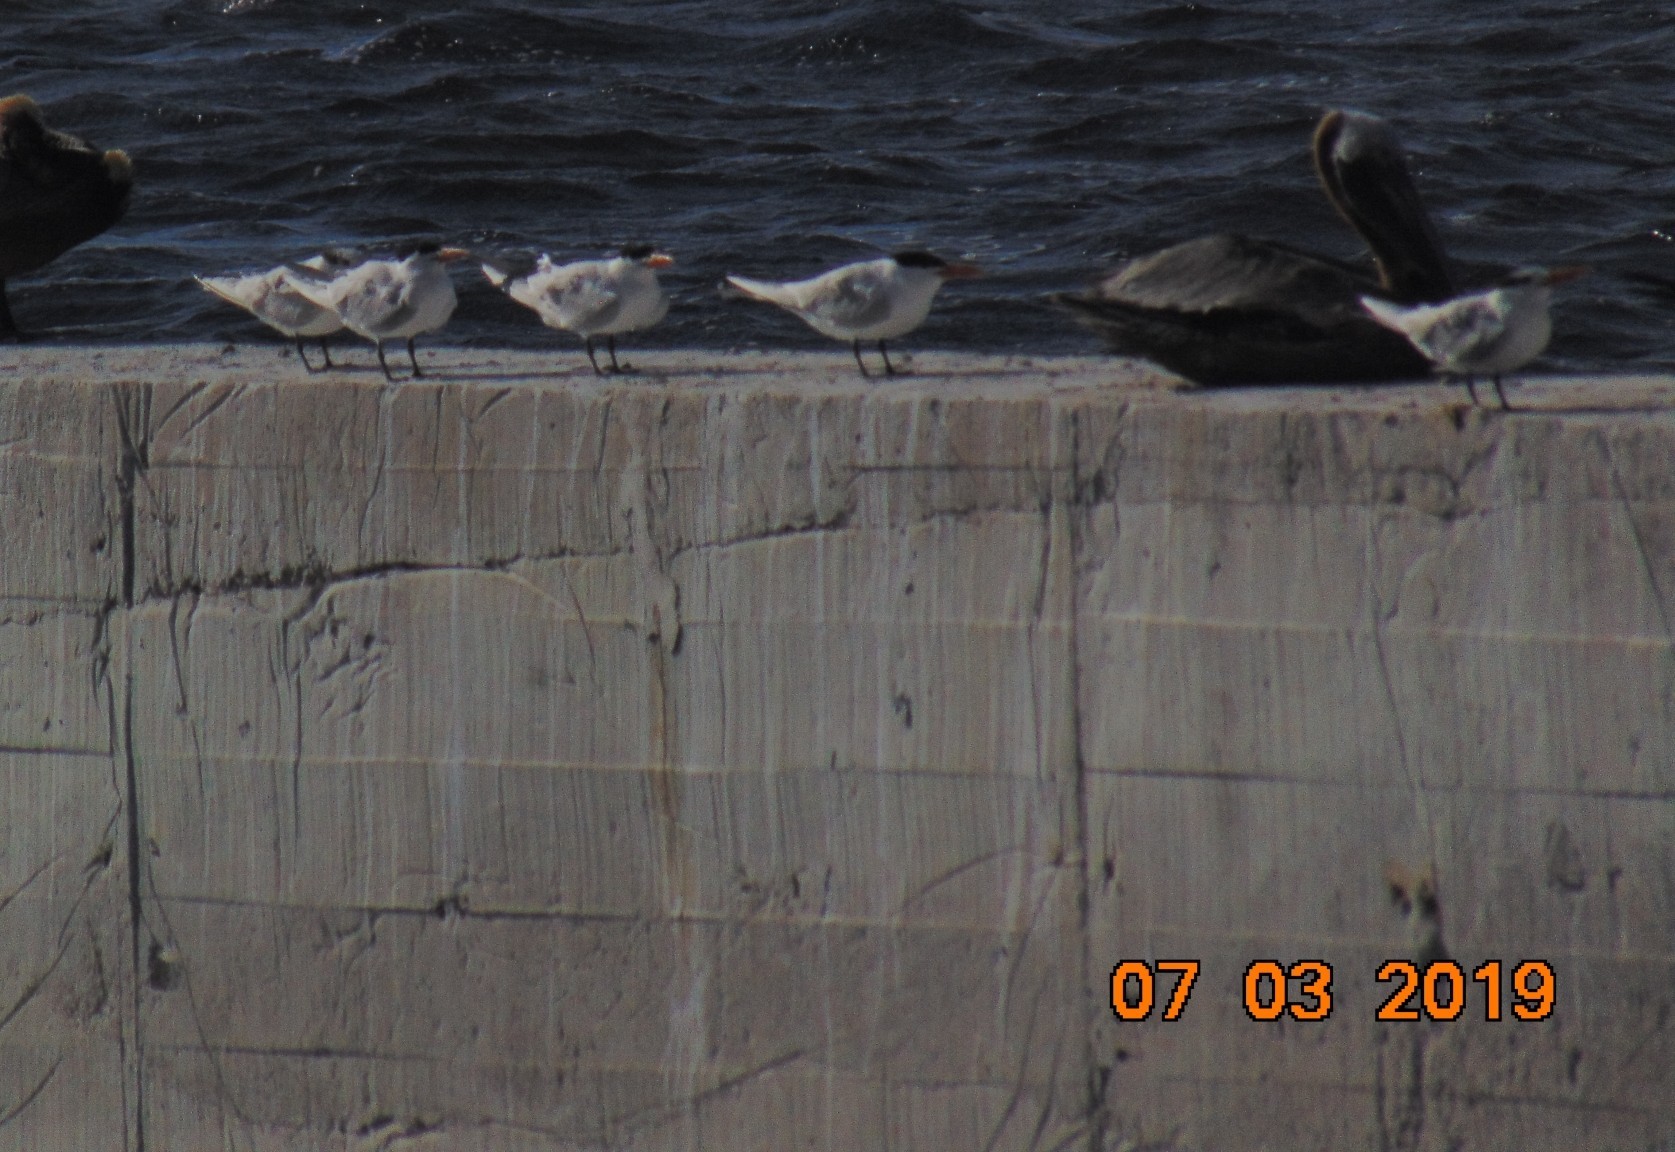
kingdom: Animalia
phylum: Chordata
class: Aves
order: Charadriiformes
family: Laridae
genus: Thalasseus
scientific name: Thalasseus maximus
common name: Royal tern
